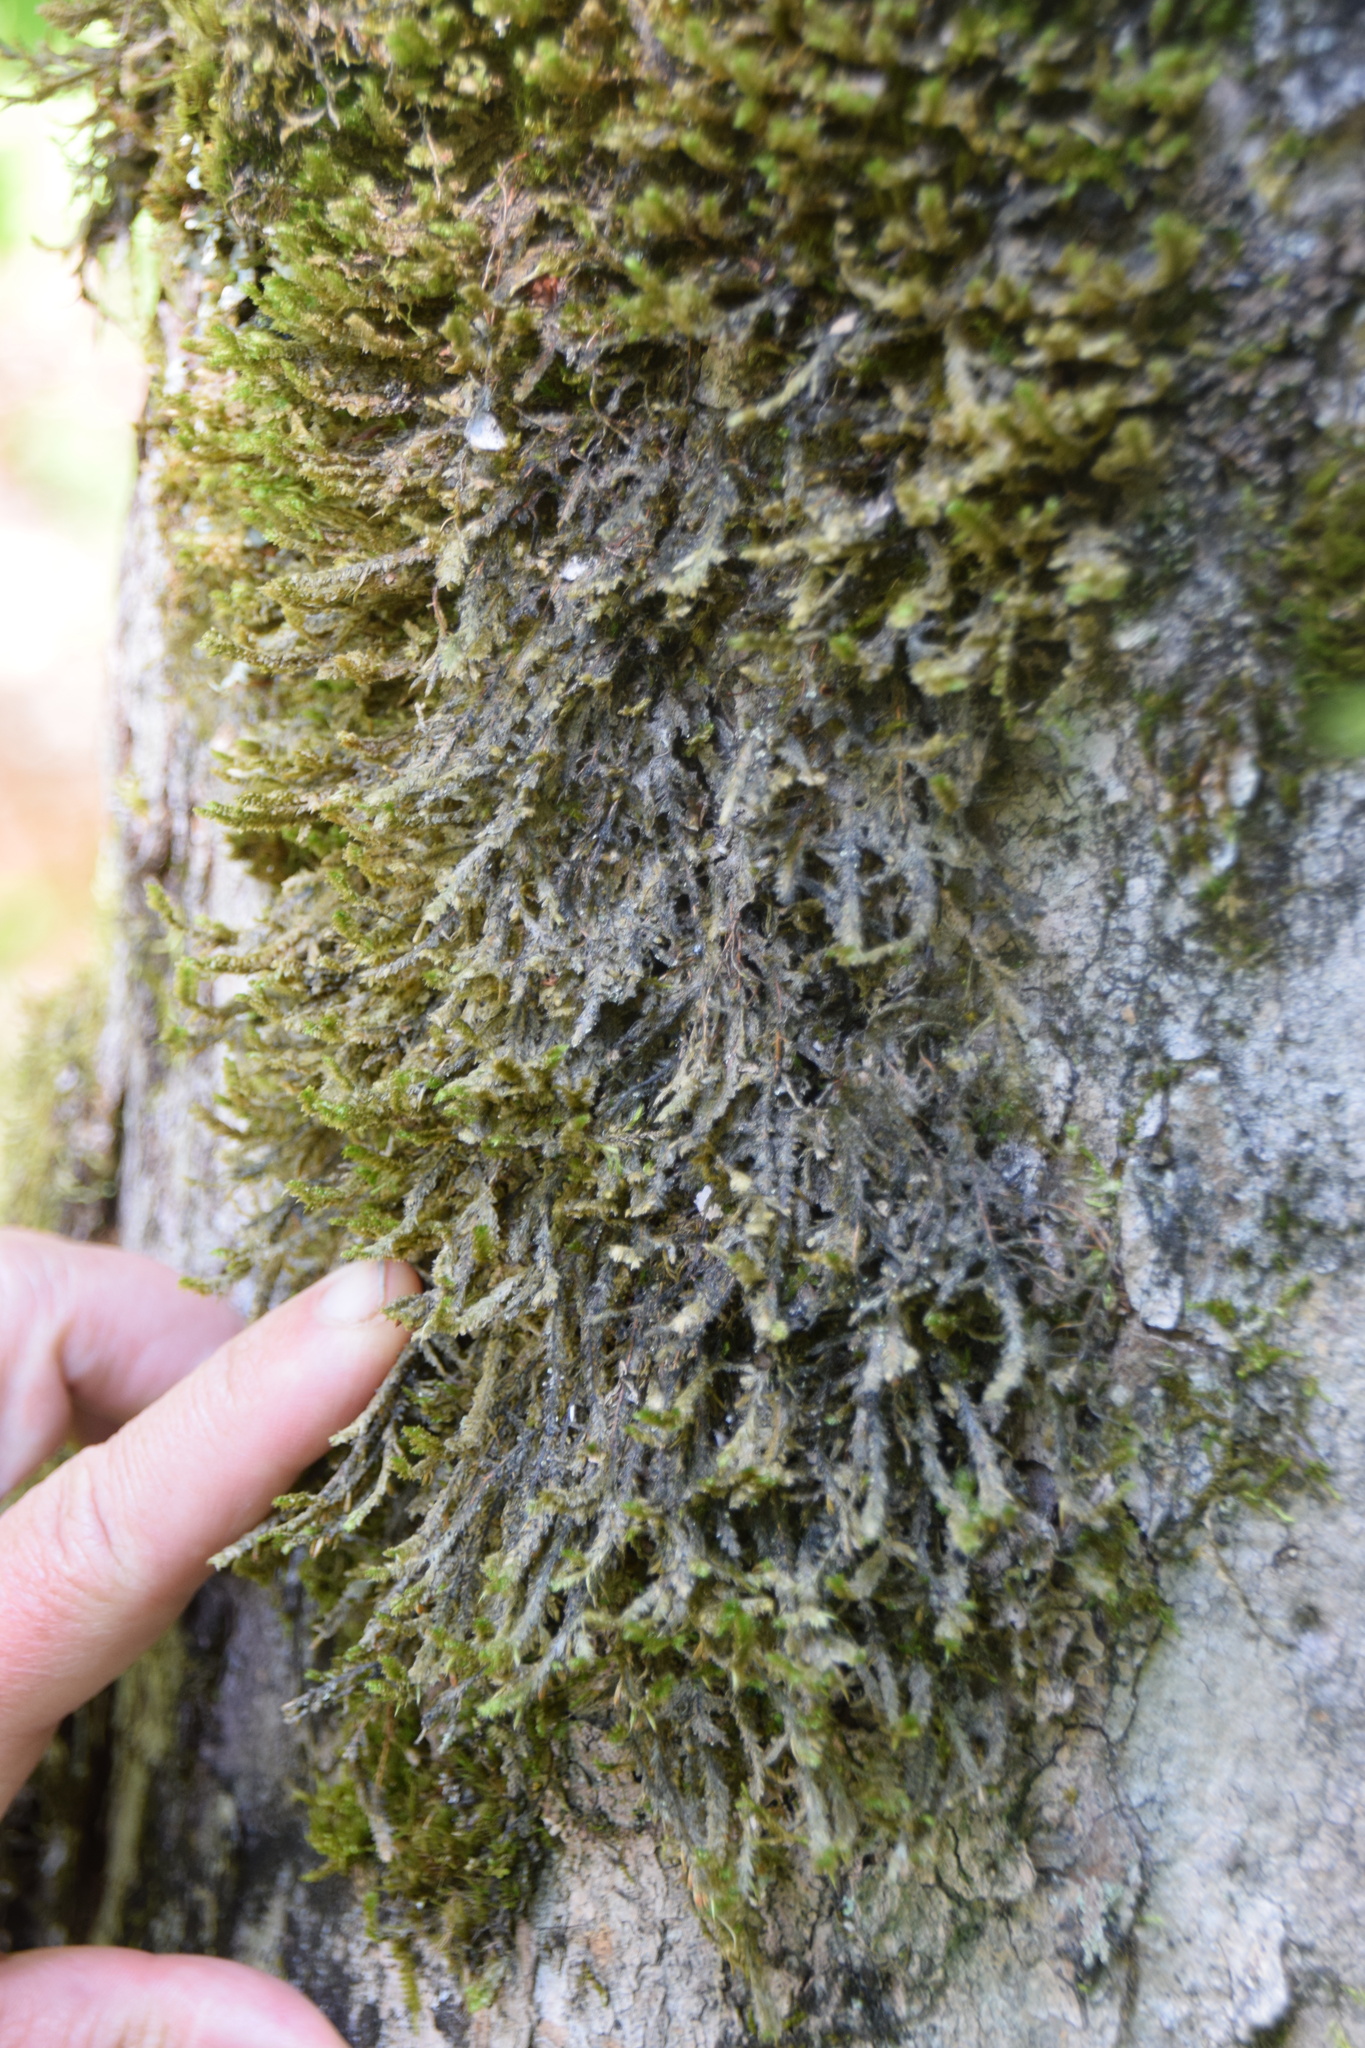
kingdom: Plantae
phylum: Bryophyta
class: Bryopsida
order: Hypnales
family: Neckeraceae
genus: Neckera
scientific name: Neckera pennata
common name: Feathery neckera
